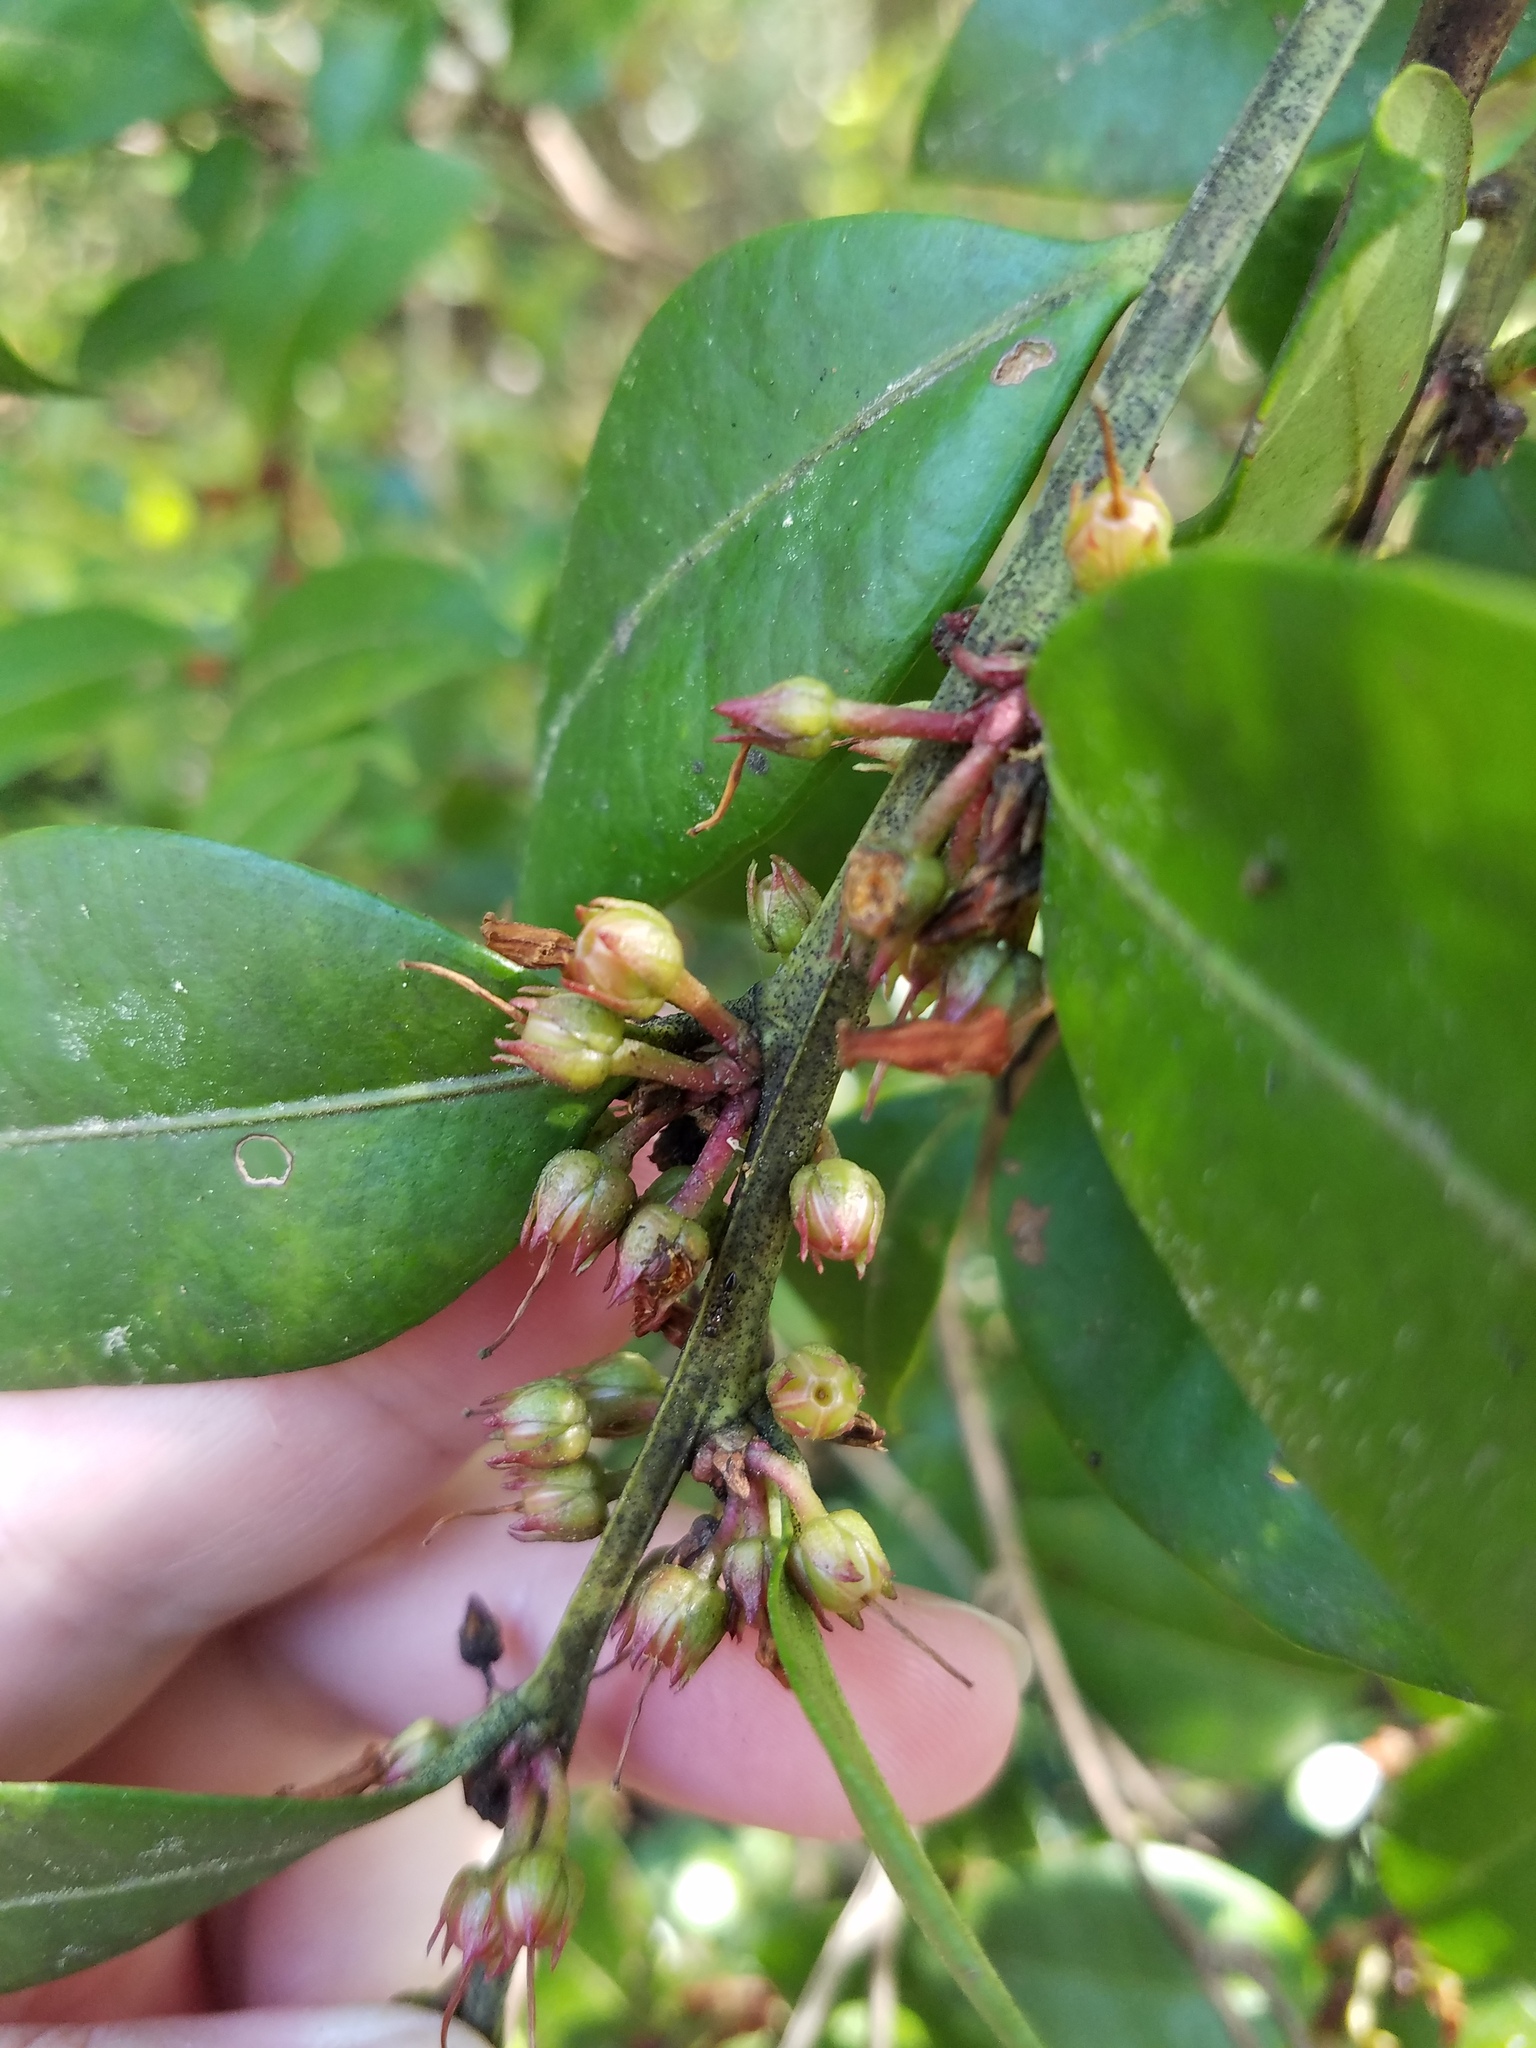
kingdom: Plantae
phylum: Tracheophyta
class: Magnoliopsida
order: Ericales
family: Ericaceae
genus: Lyonia
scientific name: Lyonia lucida
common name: Fetterbush
